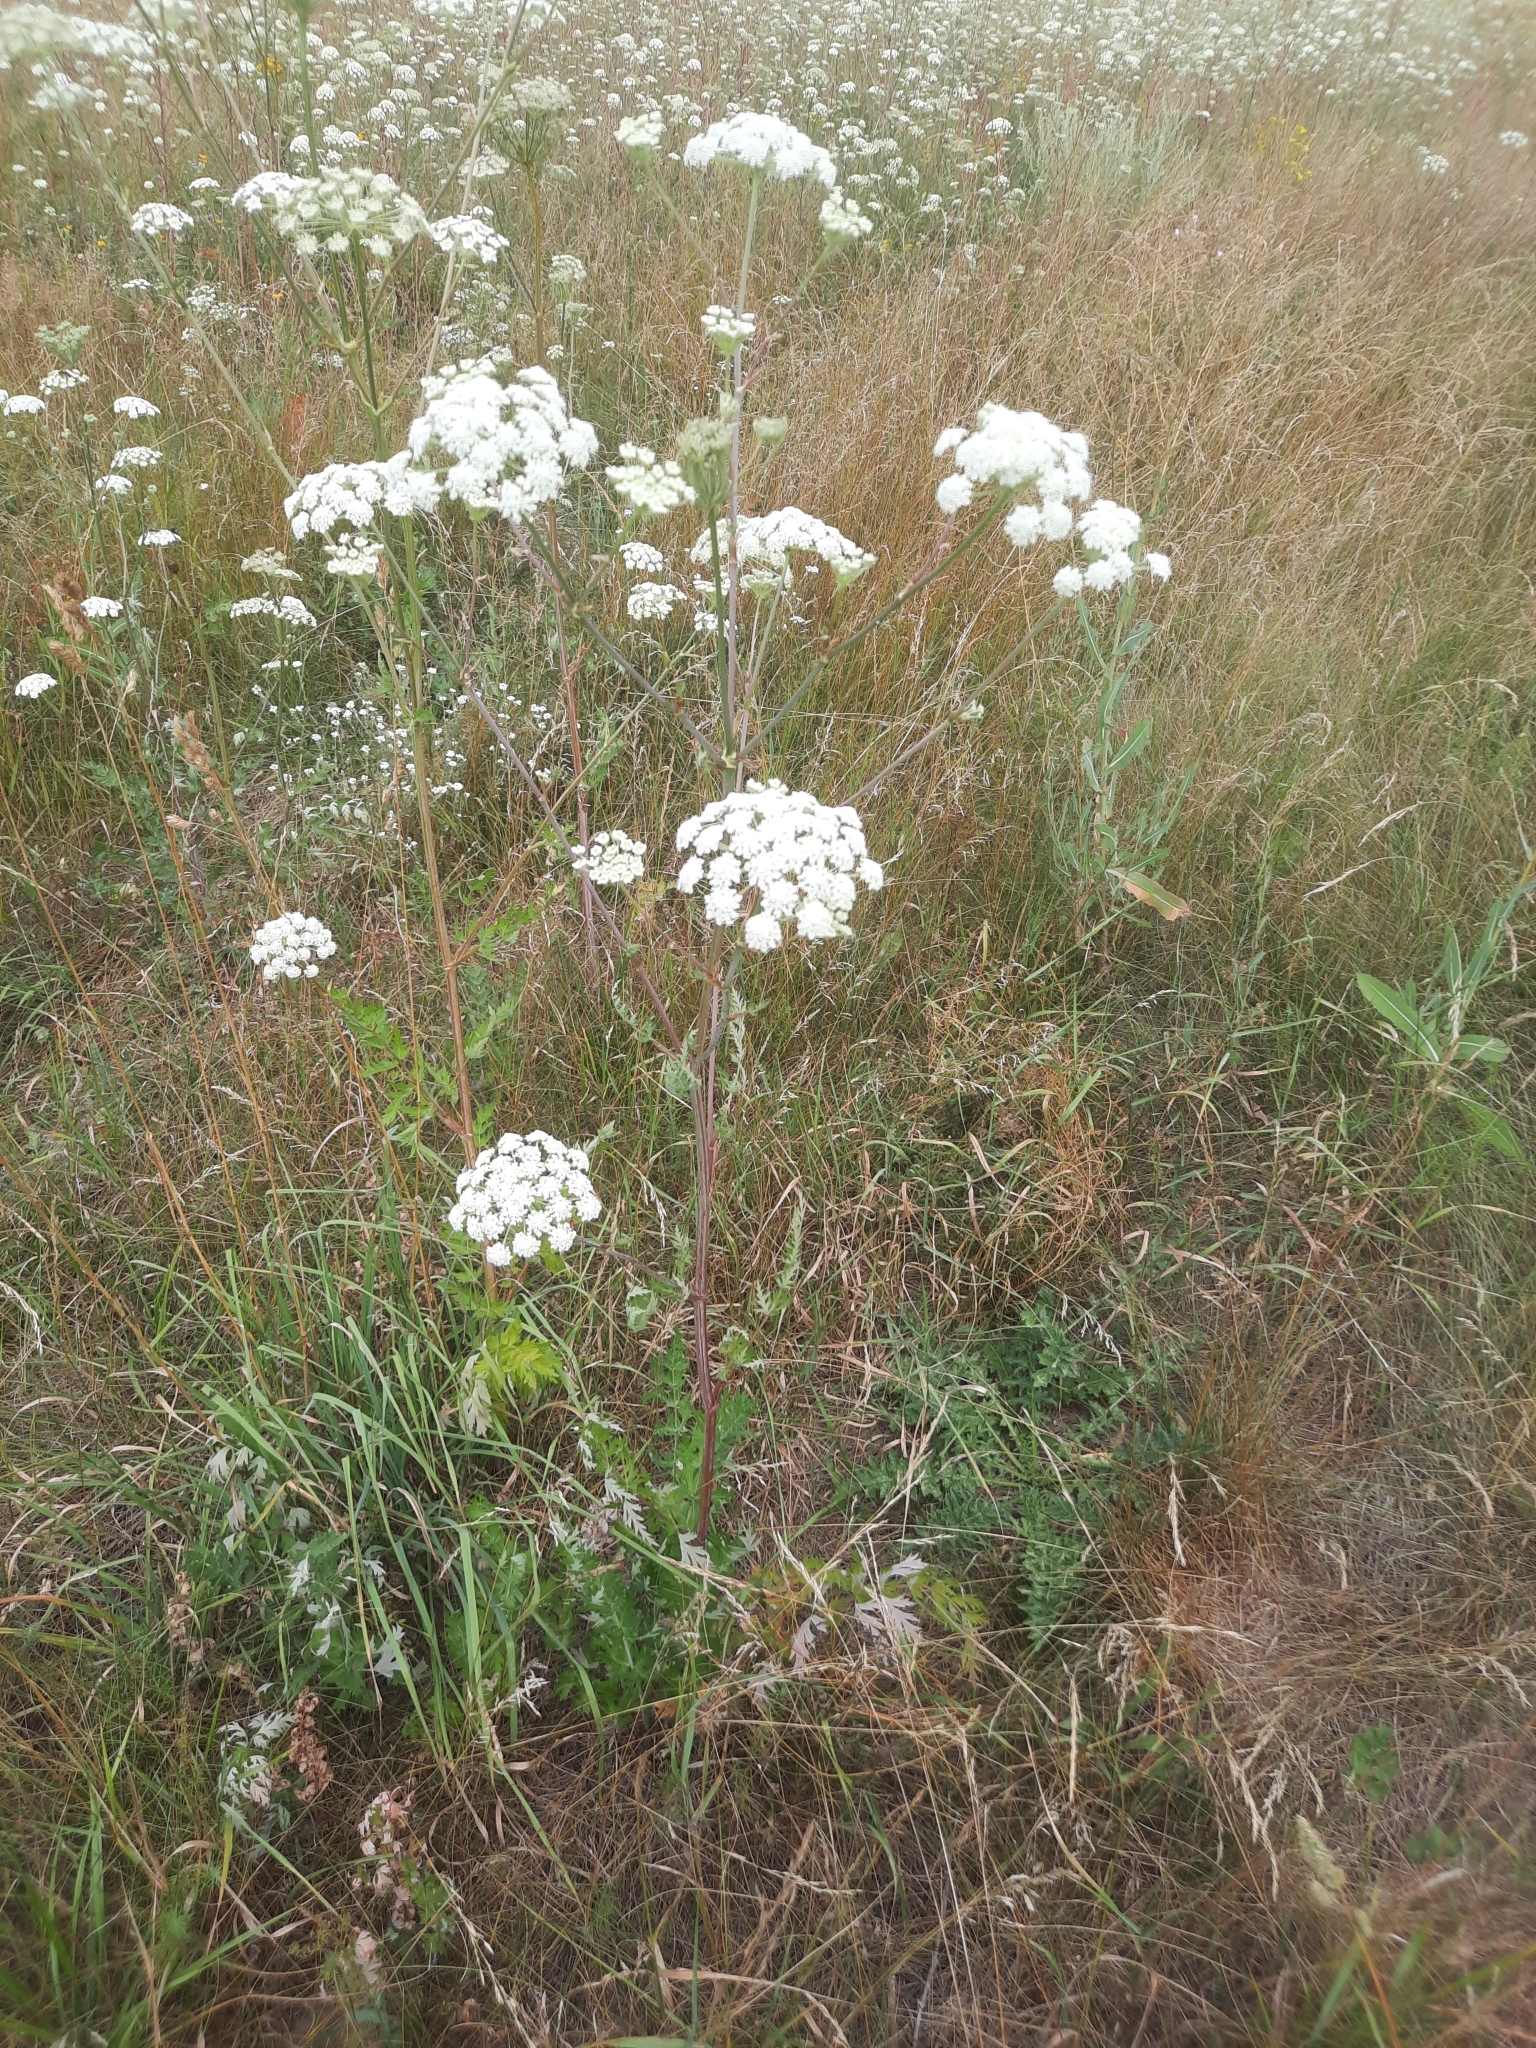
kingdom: Plantae
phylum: Tracheophyta
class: Magnoliopsida
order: Apiales
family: Apiaceae
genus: Seseli
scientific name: Seseli libanotis
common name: Mooncarrot
